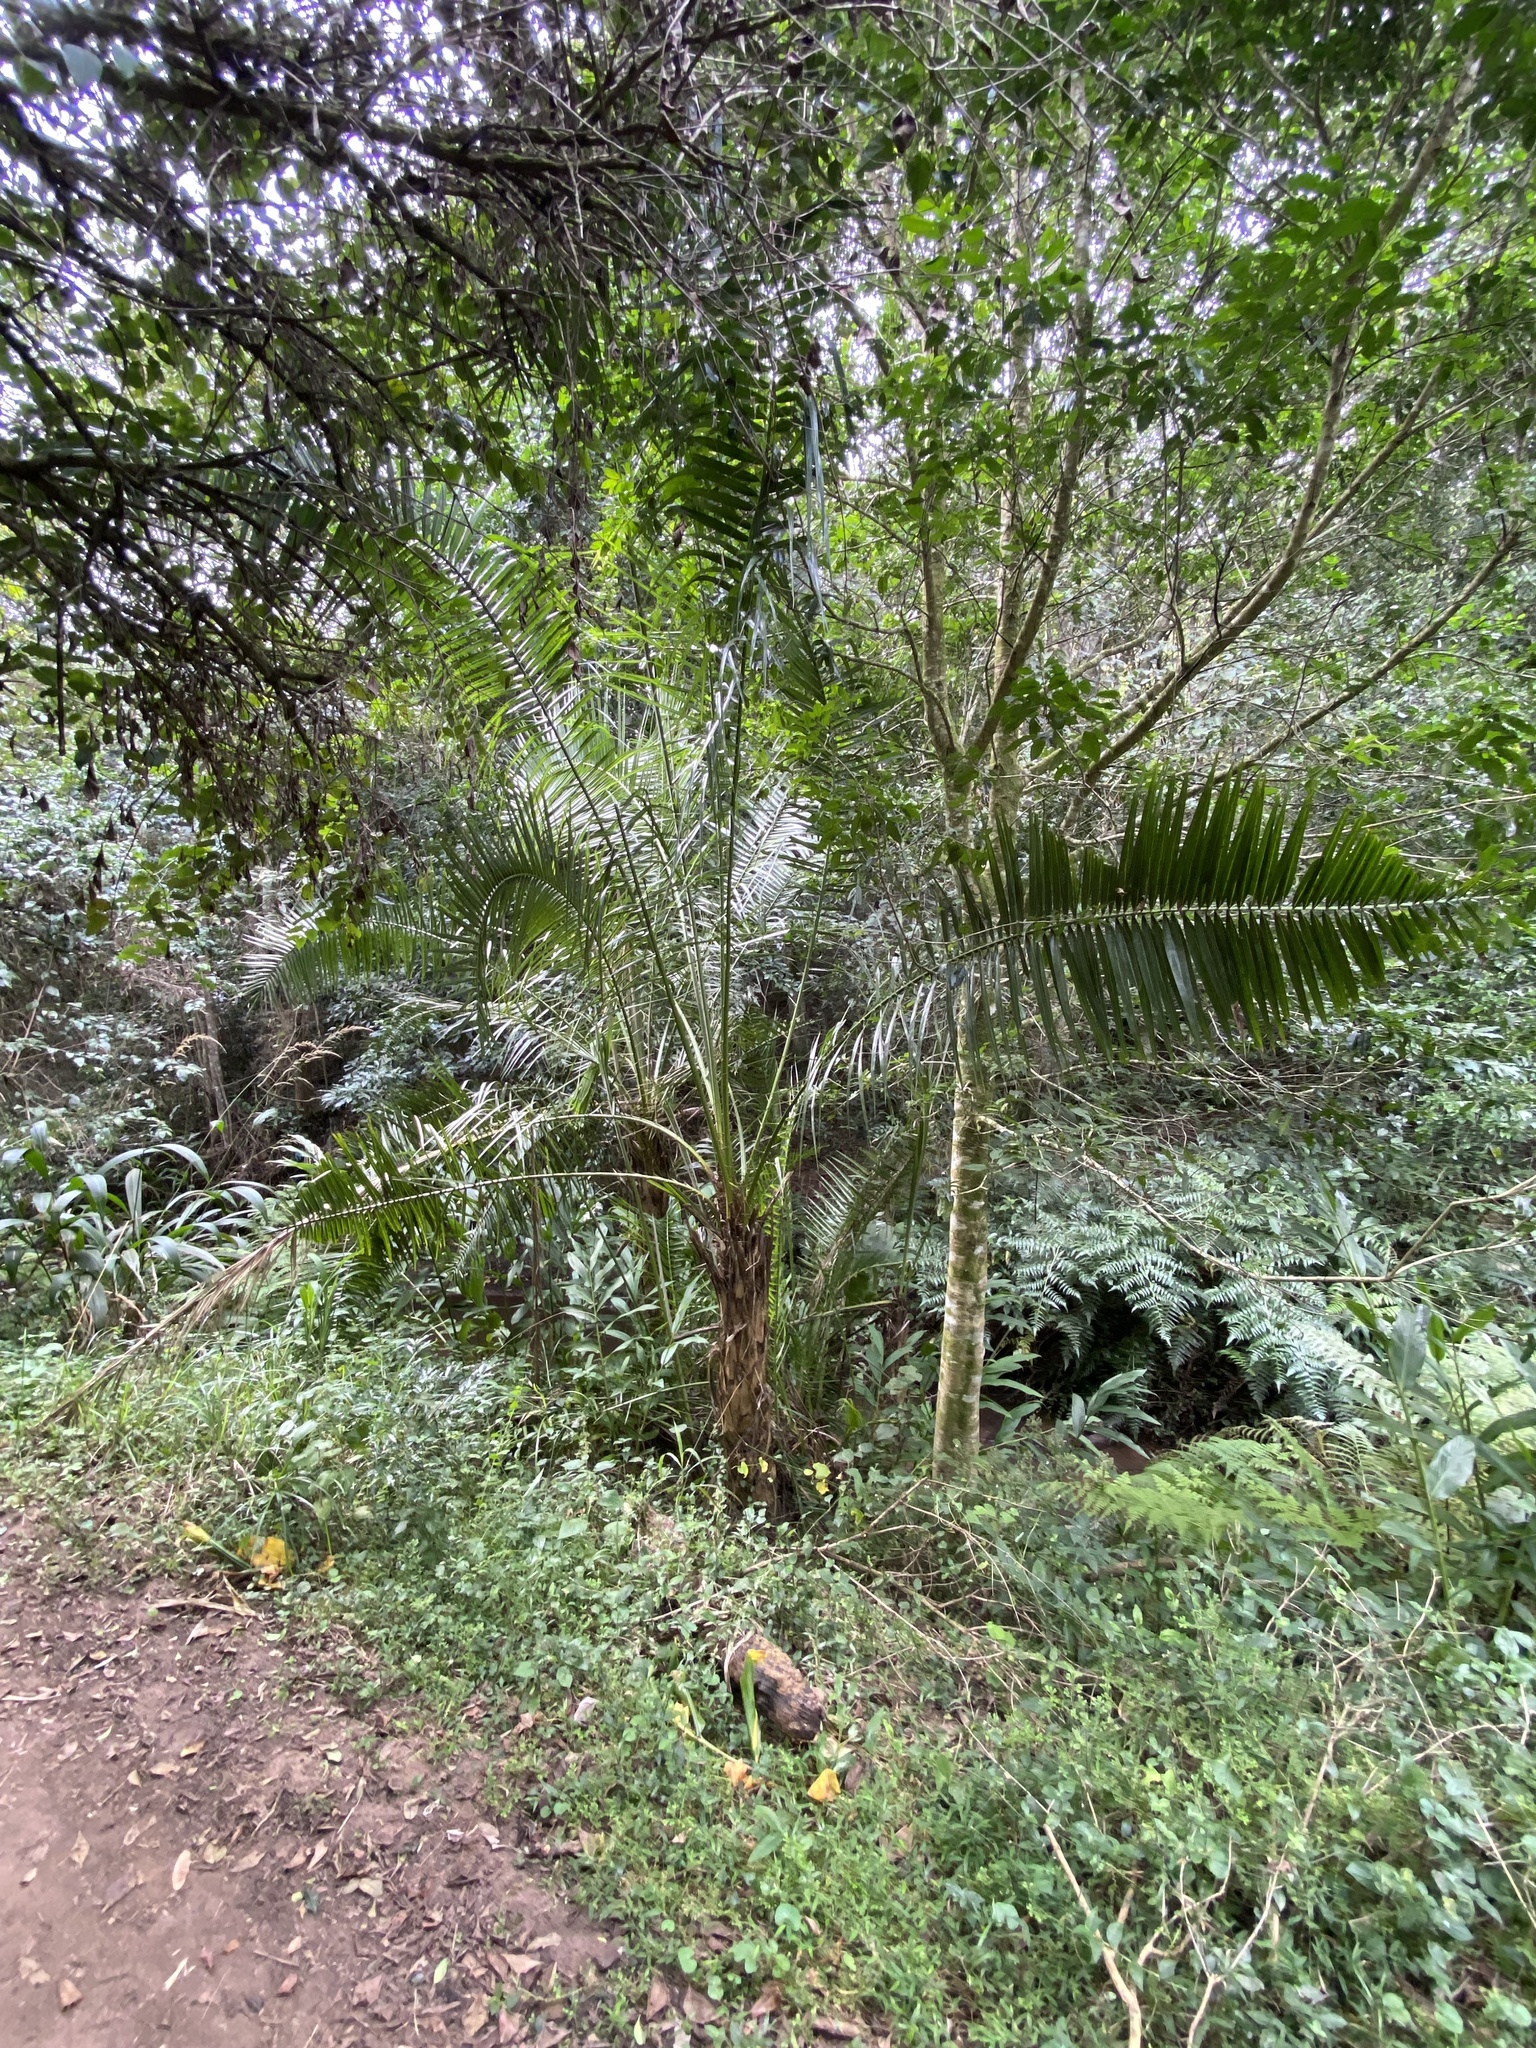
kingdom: Plantae
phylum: Tracheophyta
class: Liliopsida
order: Arecales
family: Arecaceae
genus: Phoenix
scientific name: Phoenix reclinata
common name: Senegal date palm
